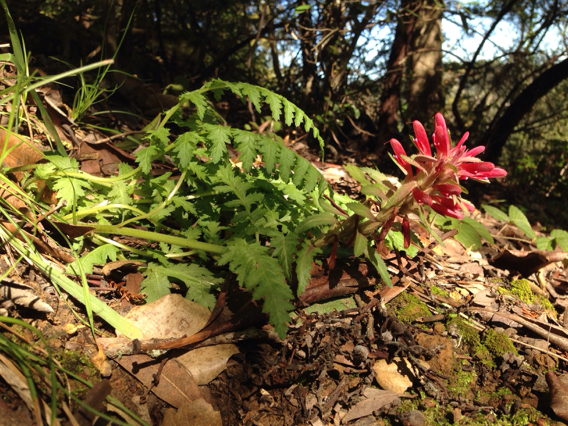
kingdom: Plantae
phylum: Tracheophyta
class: Magnoliopsida
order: Lamiales
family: Orobanchaceae
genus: Pedicularis
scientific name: Pedicularis densiflora
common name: Indian warrior
